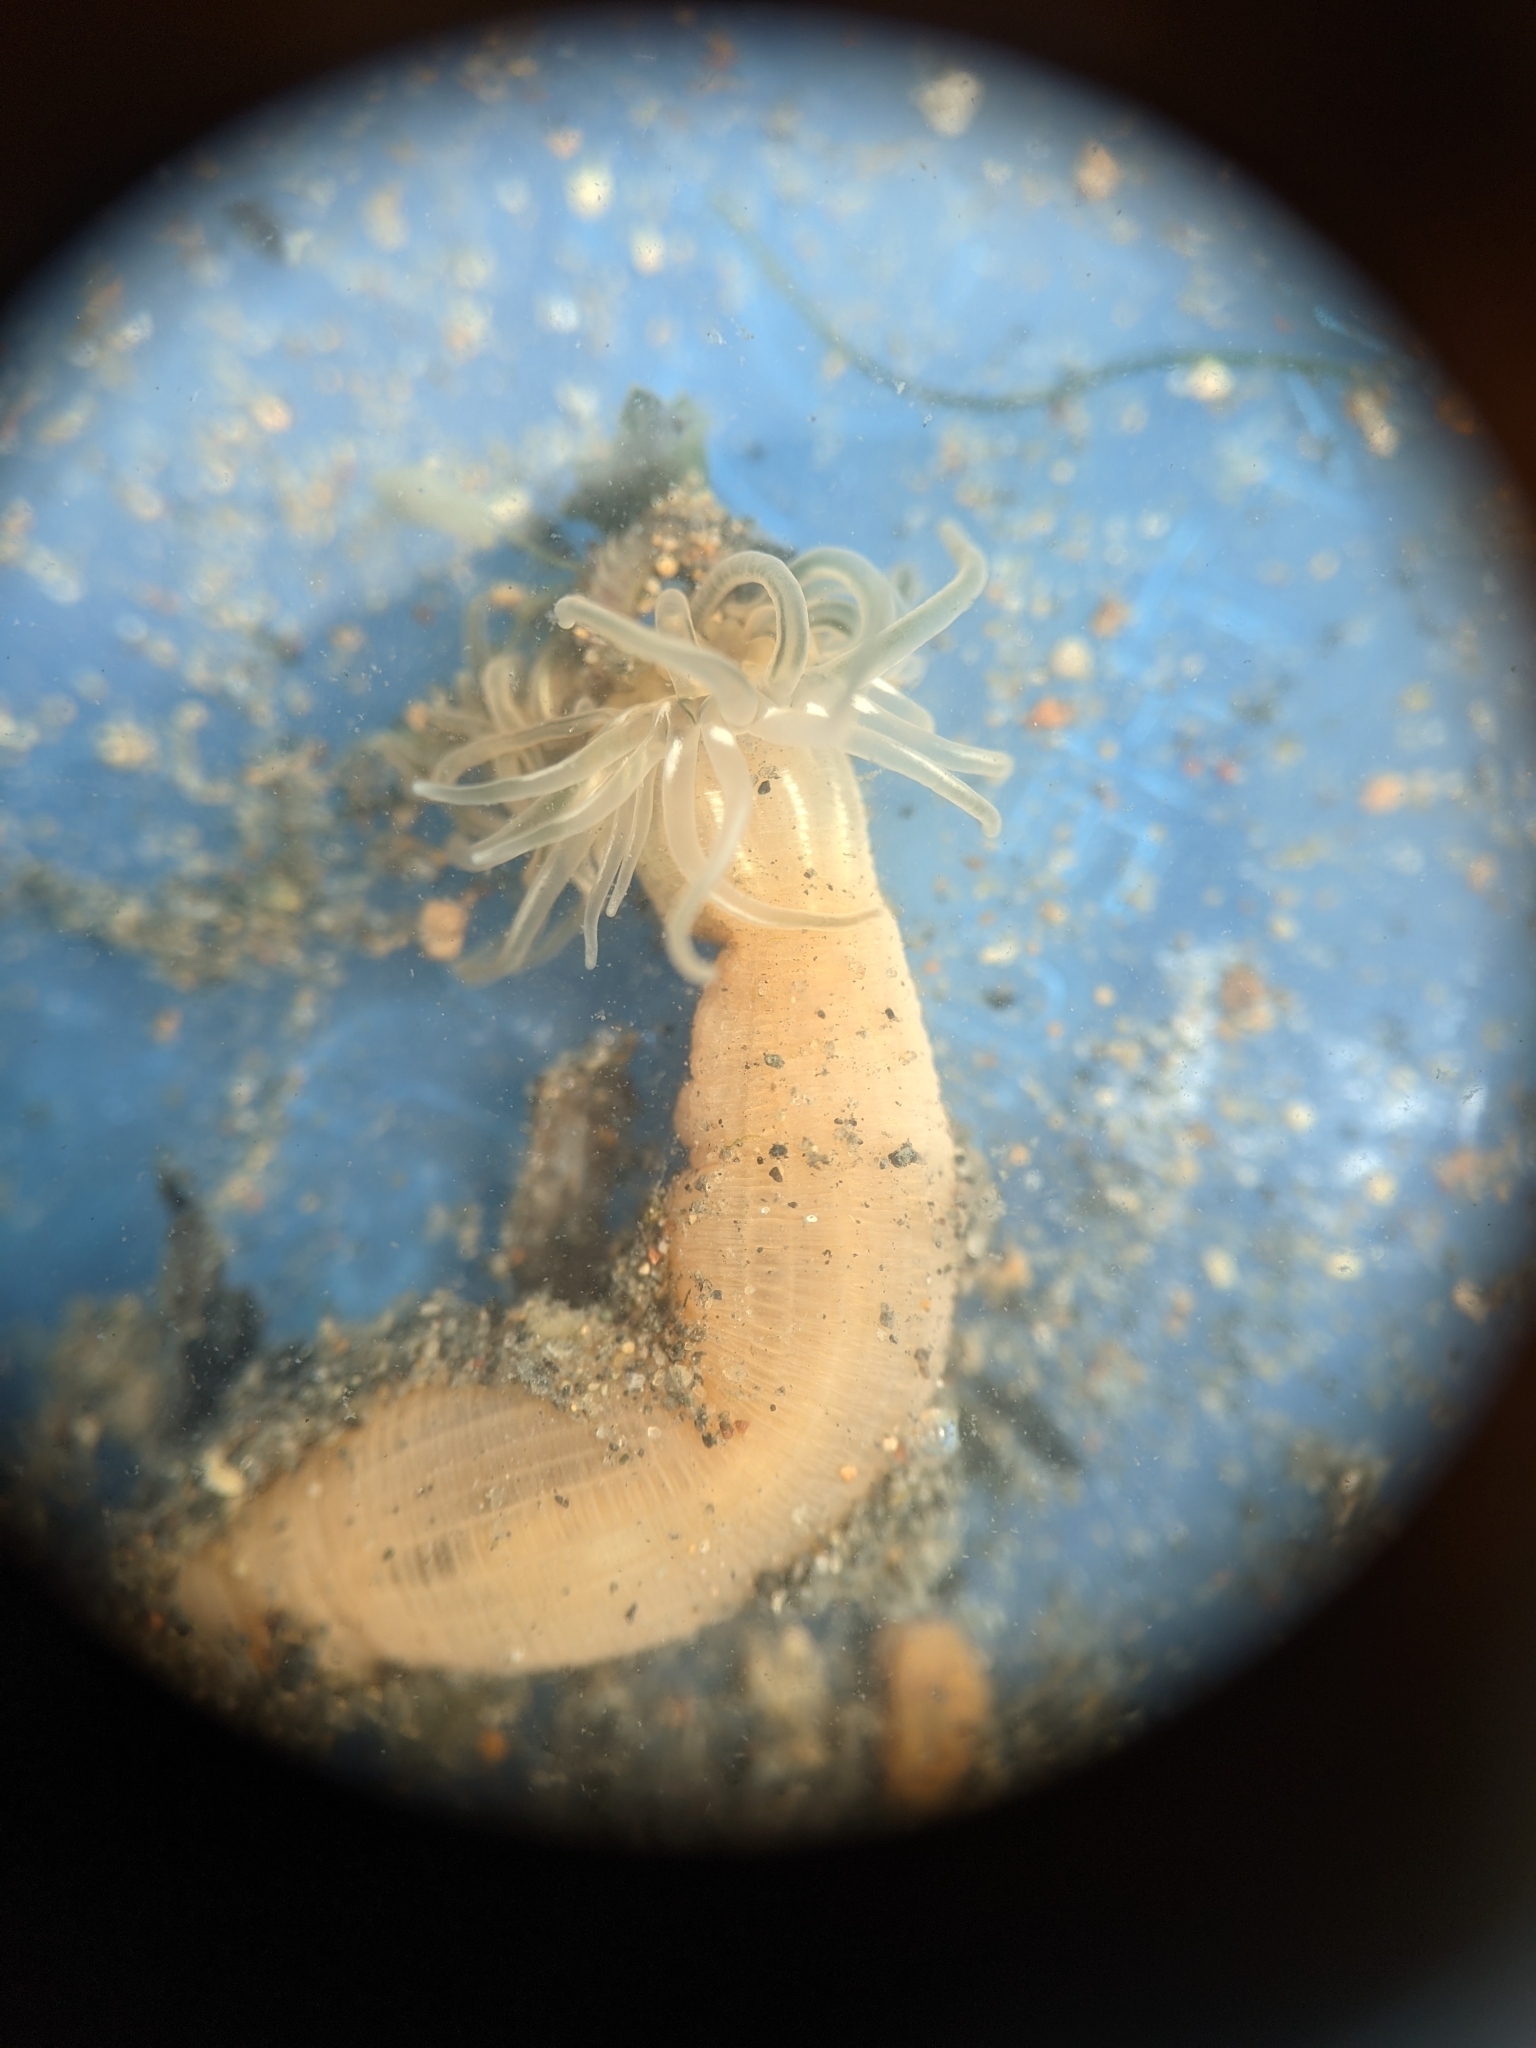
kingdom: Animalia
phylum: Cnidaria
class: Anthozoa
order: Actiniaria
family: Isanthidae
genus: Zaolutus
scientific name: Zaolutus actius
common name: Wormy anemone
